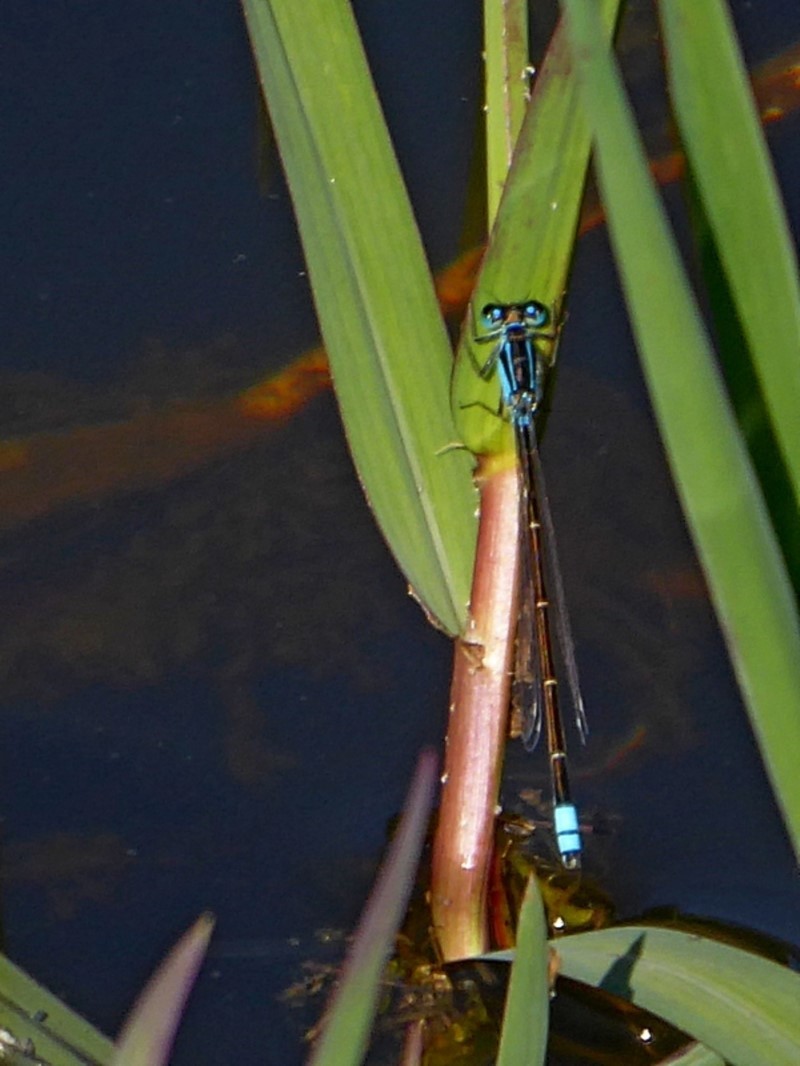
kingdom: Animalia
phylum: Arthropoda
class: Insecta
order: Odonata
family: Coenagrionidae
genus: Ischnura
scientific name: Ischnura heterosticta
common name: Common bluetail
